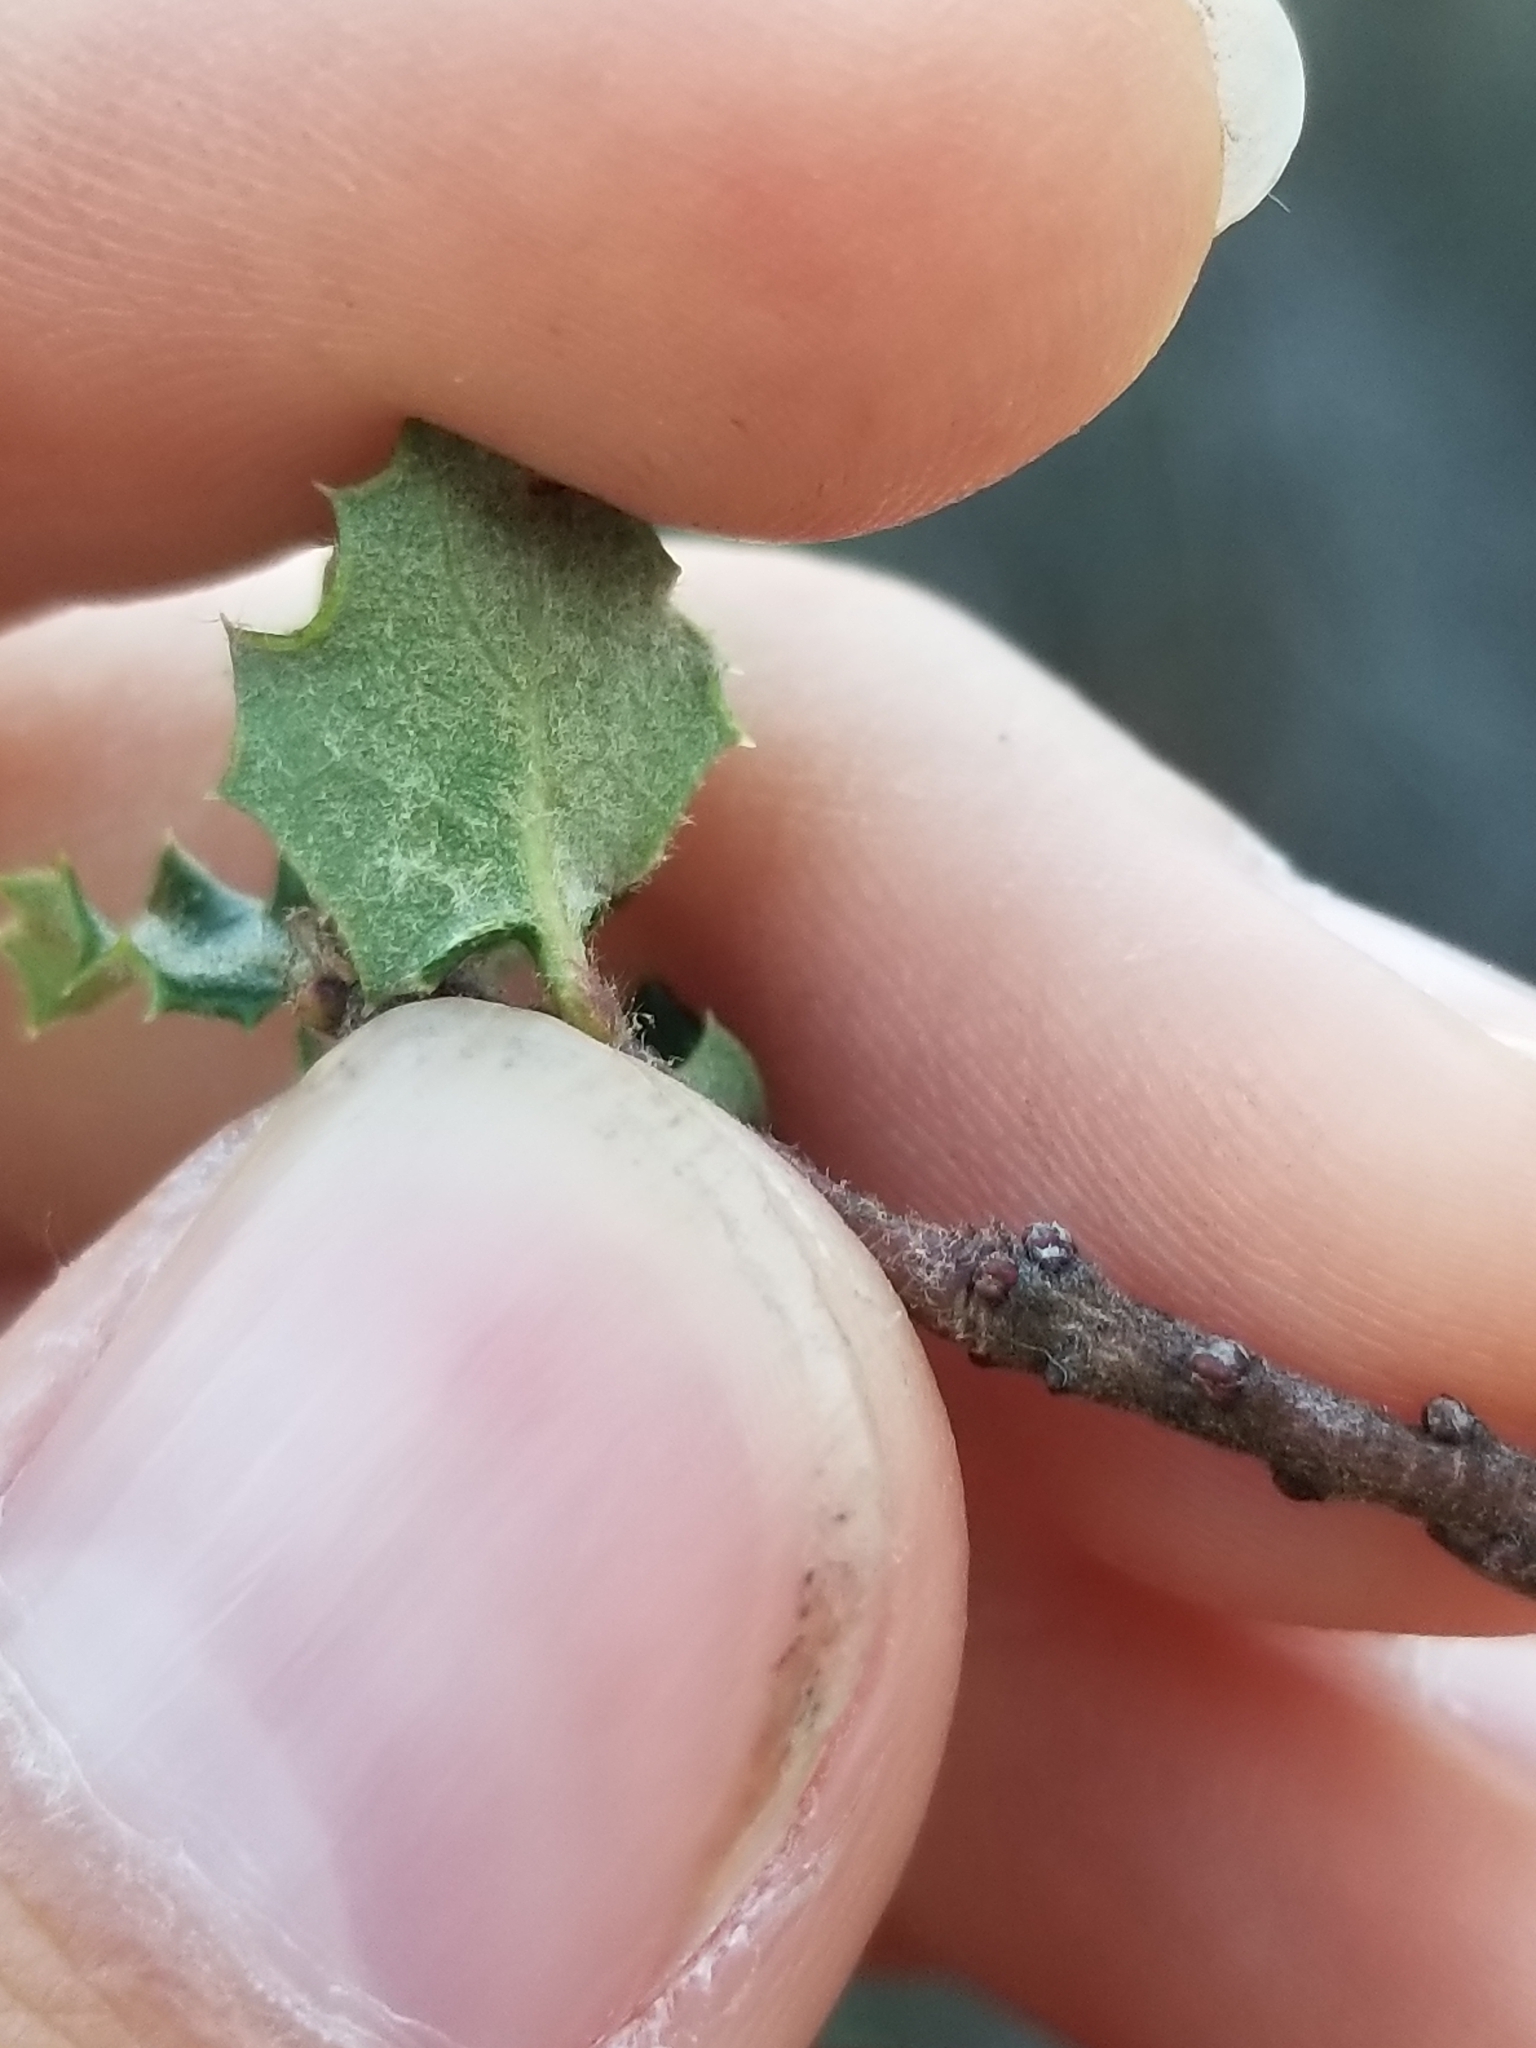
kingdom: Plantae
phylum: Tracheophyta
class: Magnoliopsida
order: Fagales
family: Fagaceae
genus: Quercus
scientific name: Quercus dumosa
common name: Coastal sage scrub oak
